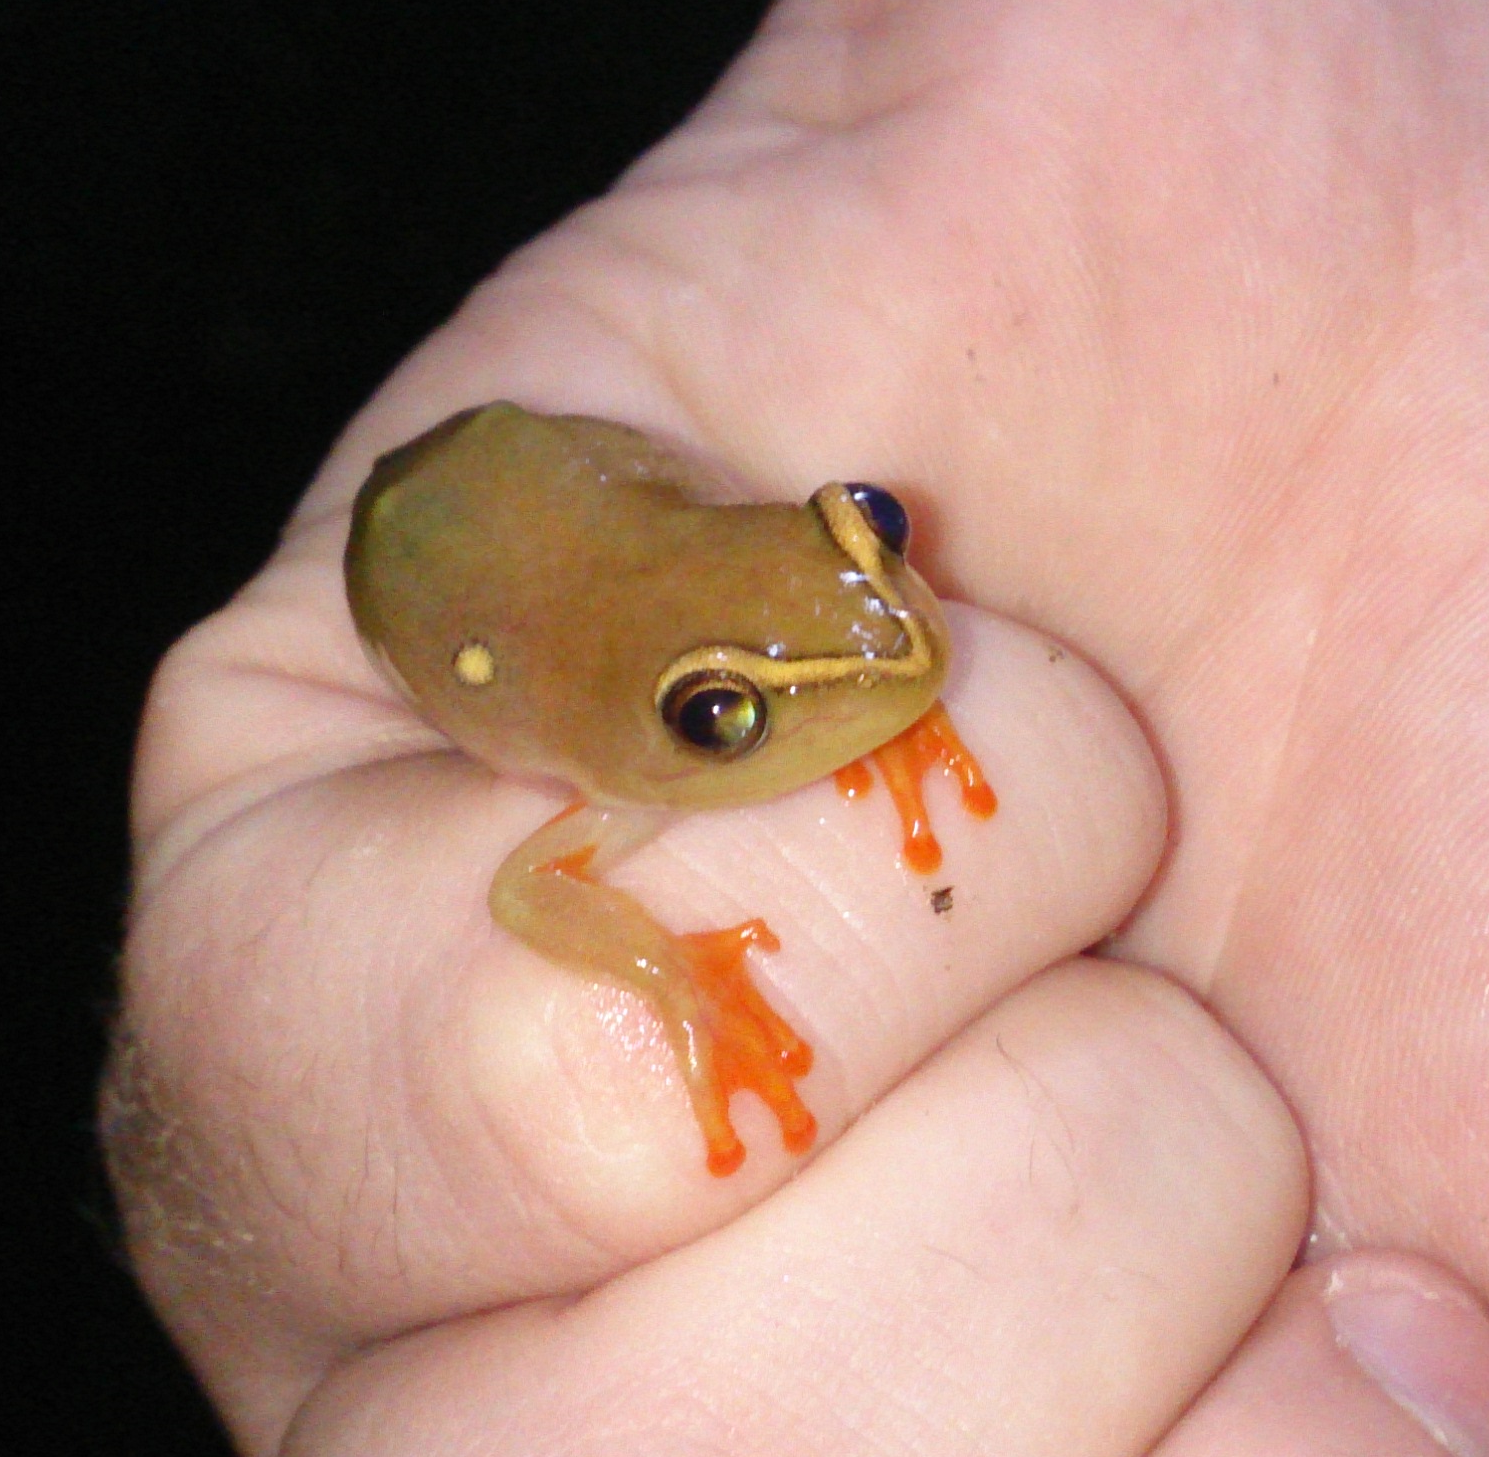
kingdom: Animalia
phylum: Chordata
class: Amphibia
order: Anura
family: Hyperoliidae
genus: Hyperolius
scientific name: Hyperolius argus
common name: Argus reed frog
